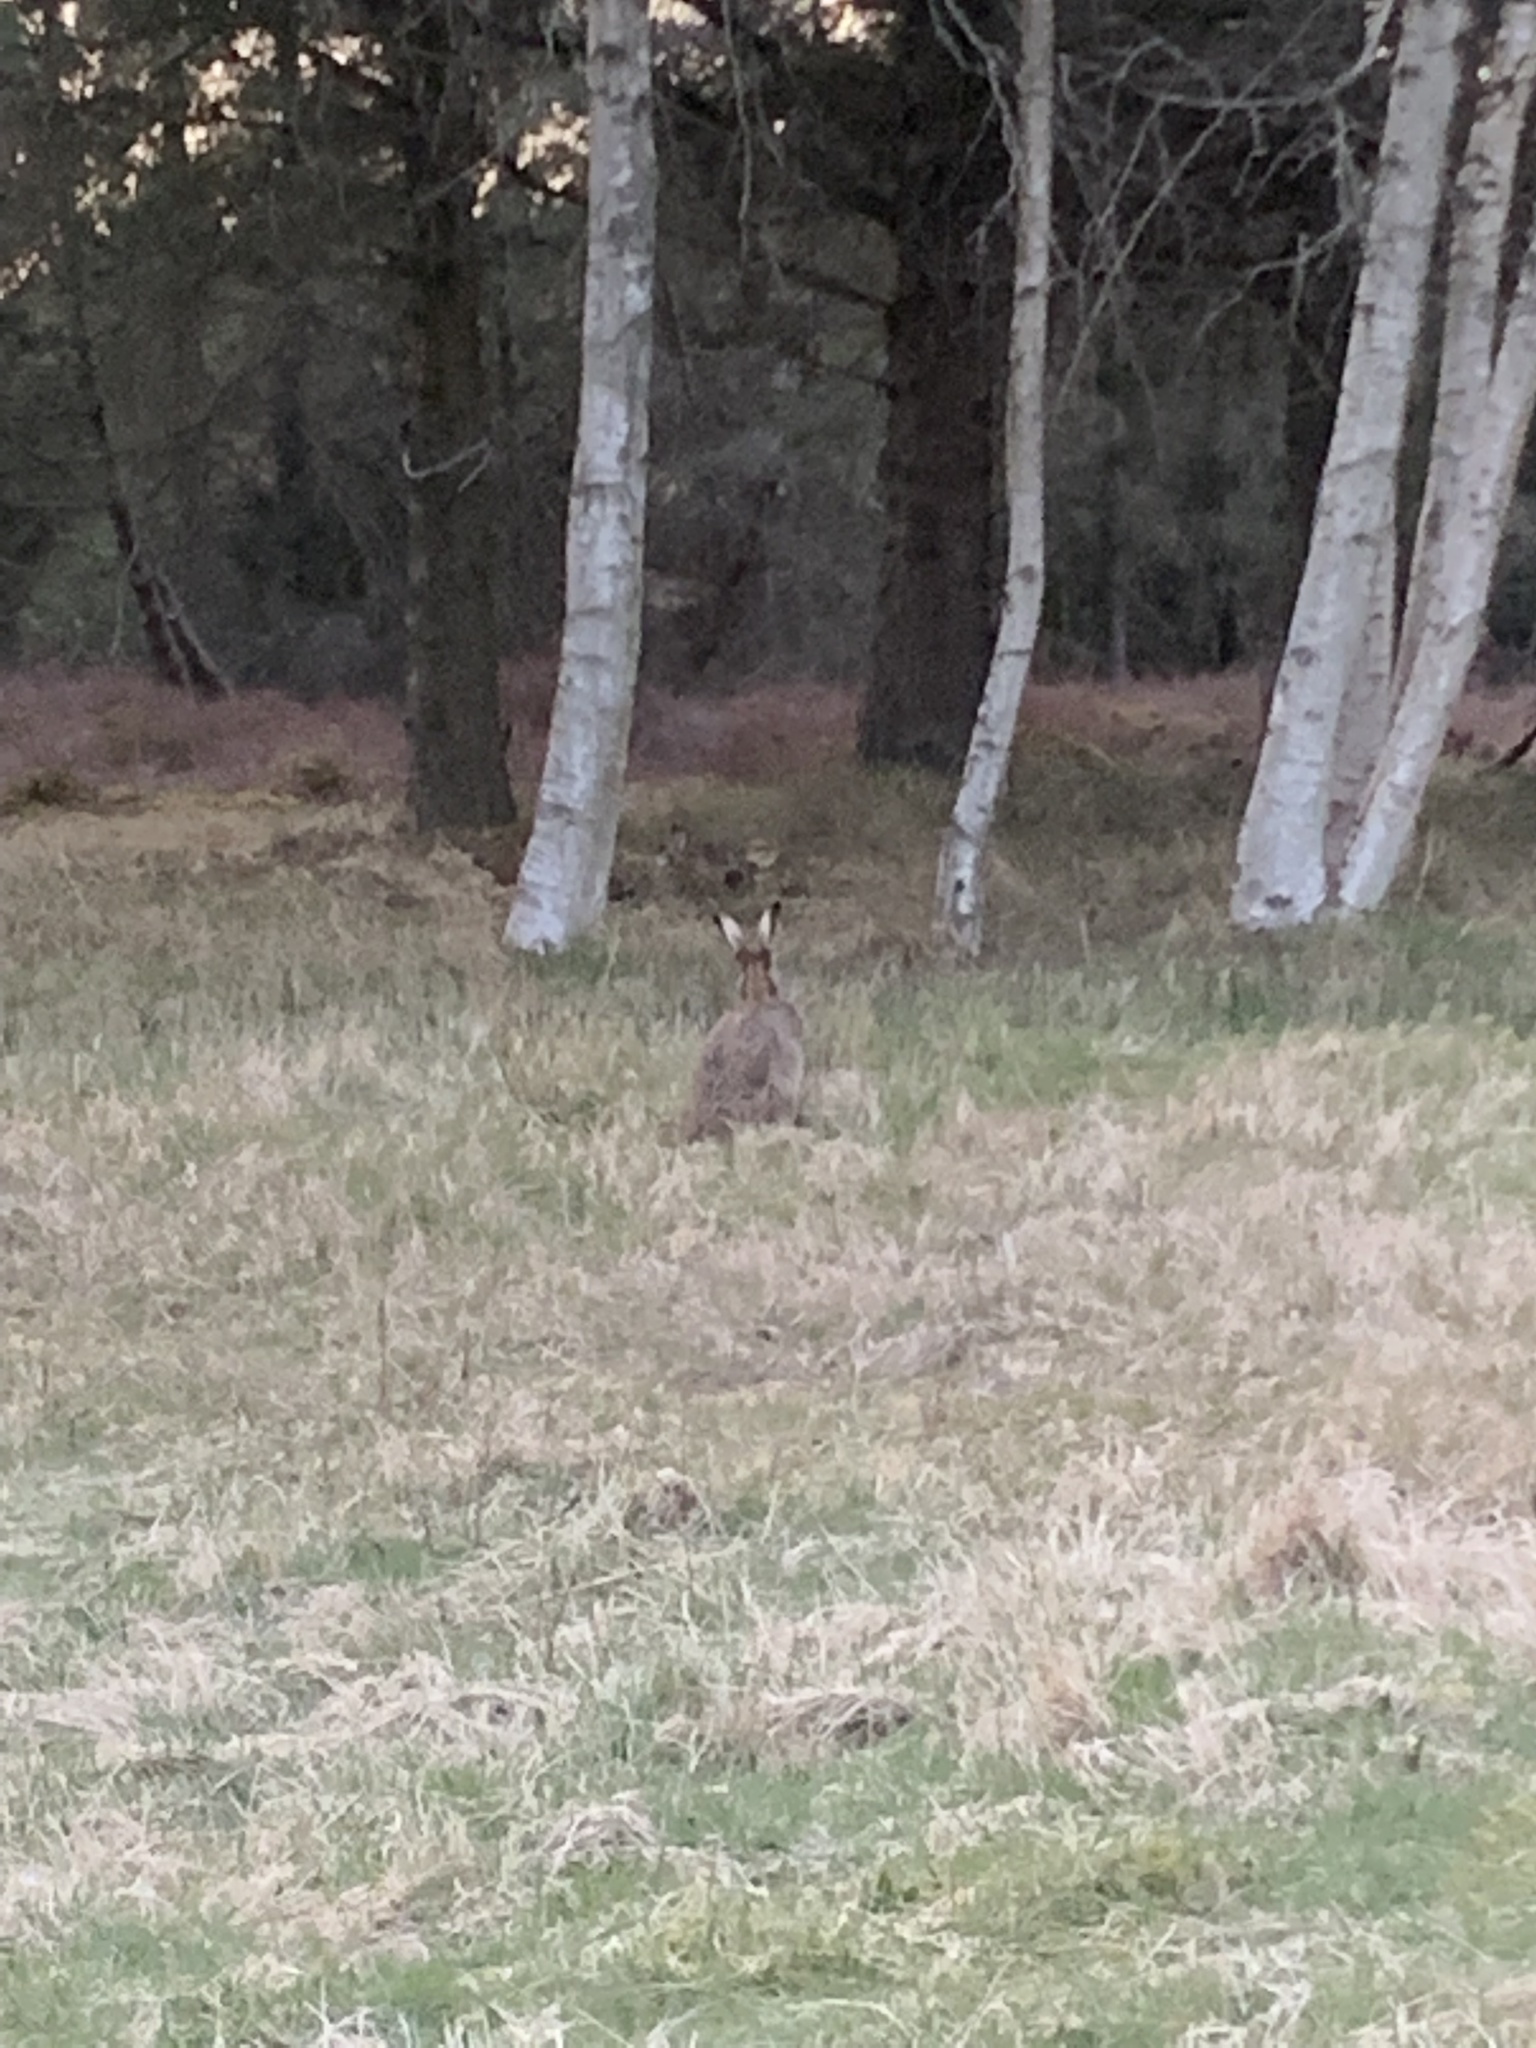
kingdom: Animalia
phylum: Chordata
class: Mammalia
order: Lagomorpha
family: Leporidae
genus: Lepus
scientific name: Lepus europaeus
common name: European hare
